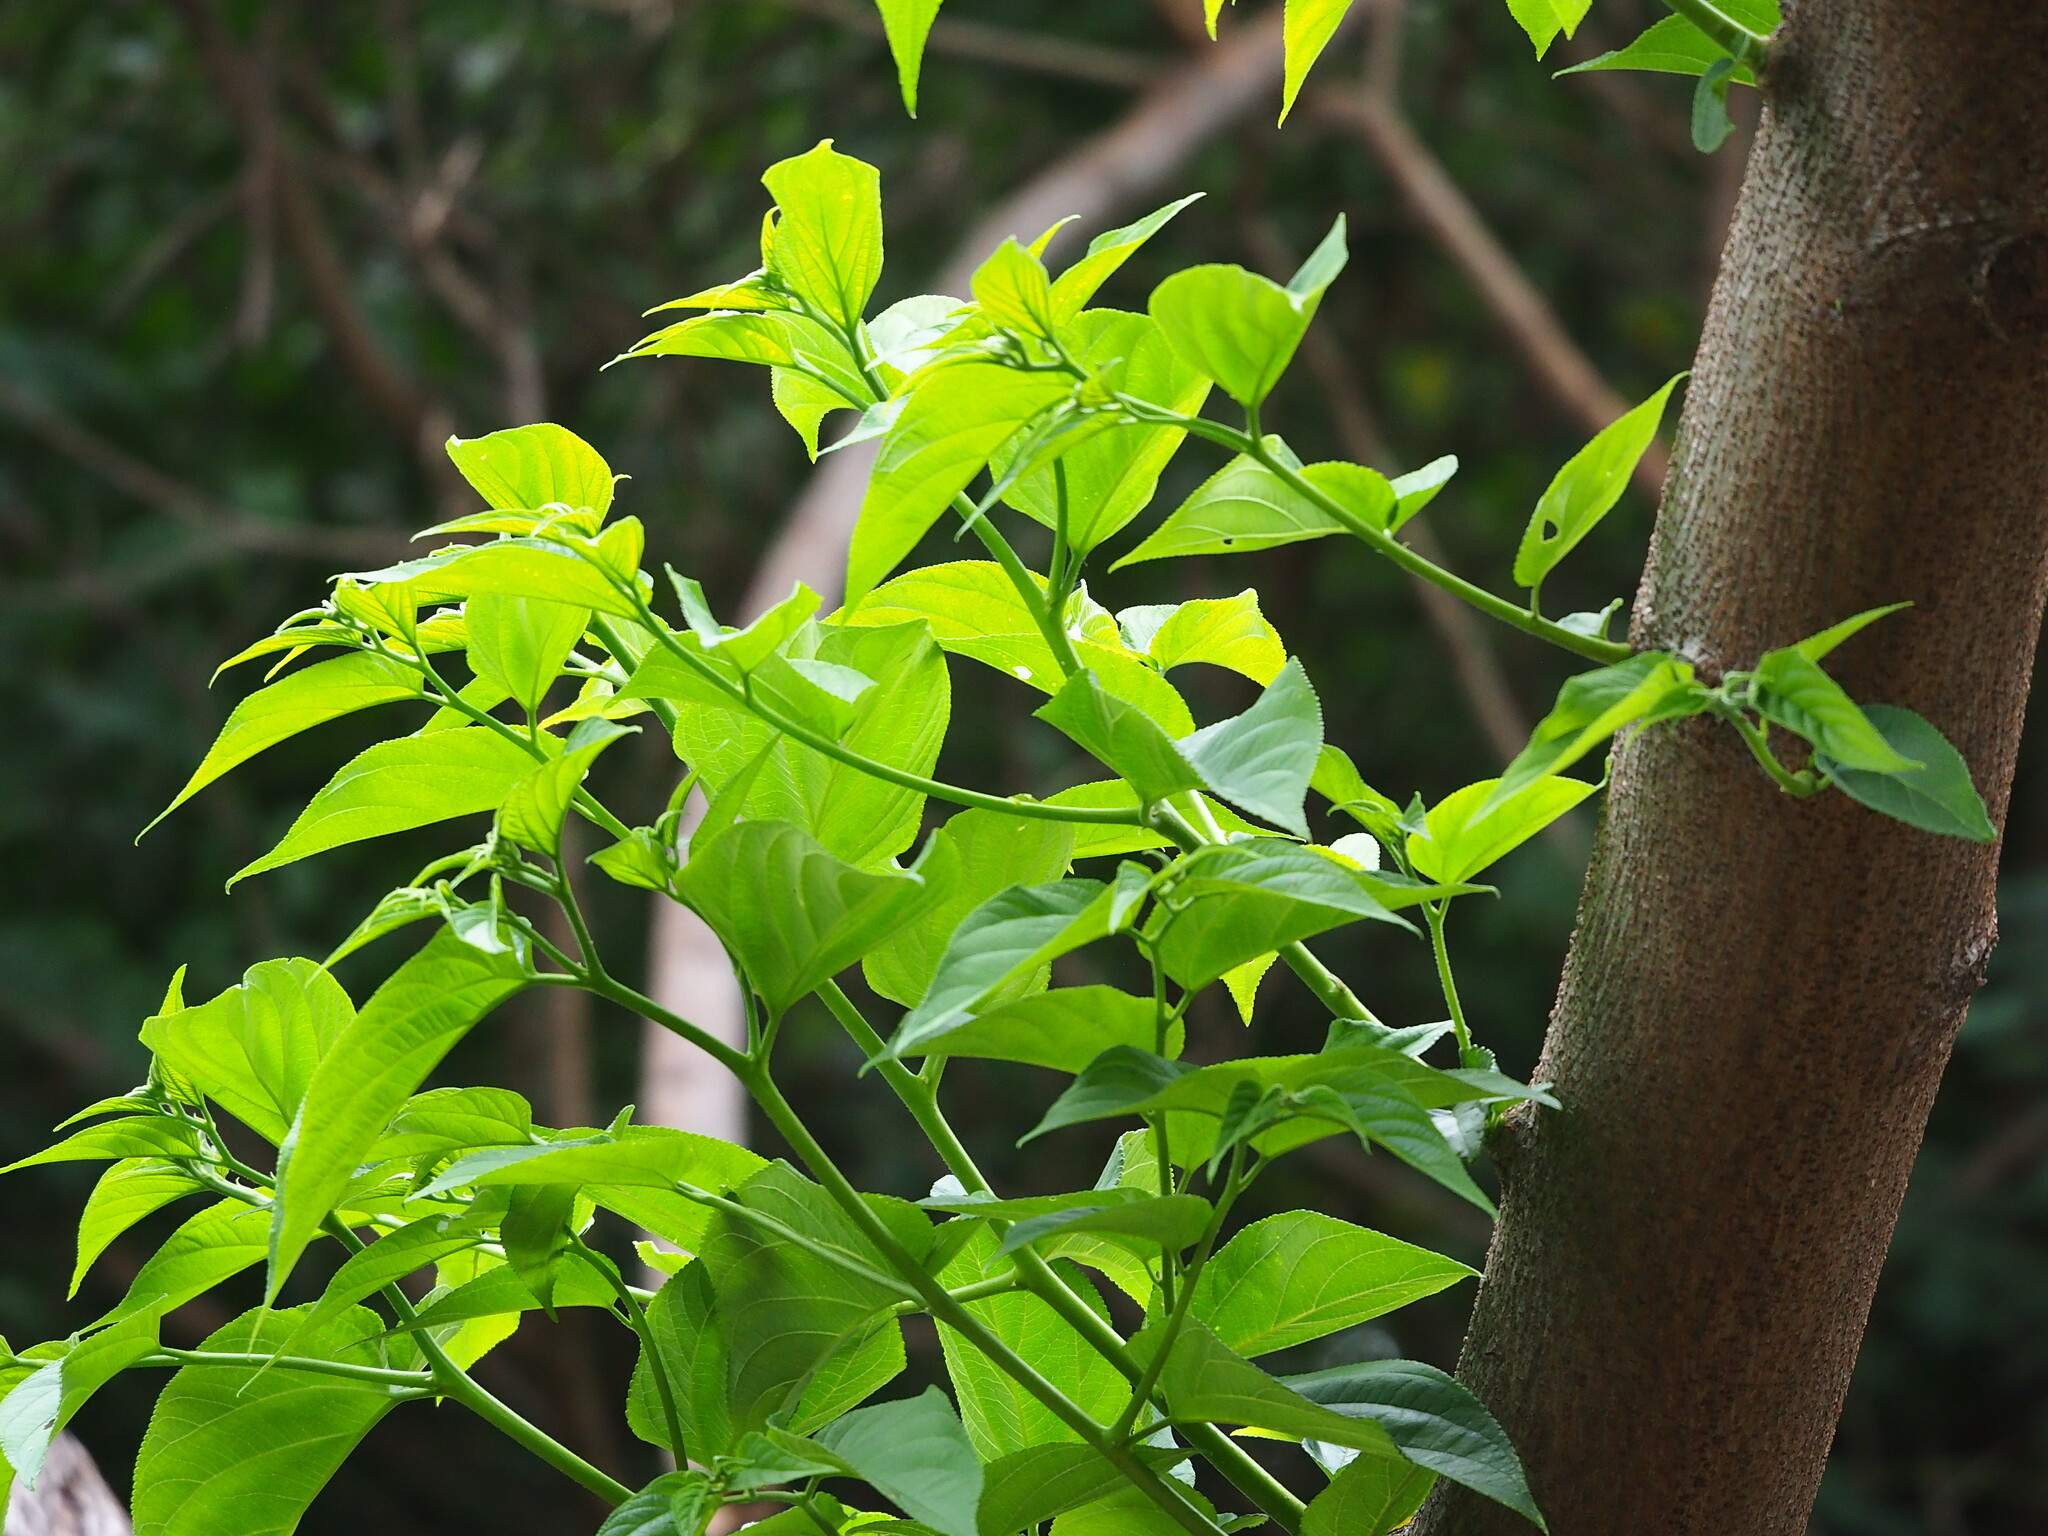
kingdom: Plantae
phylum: Tracheophyta
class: Magnoliopsida
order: Rosales
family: Cannabaceae
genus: Trema
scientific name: Trema orientale
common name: Indian charcoal tree
